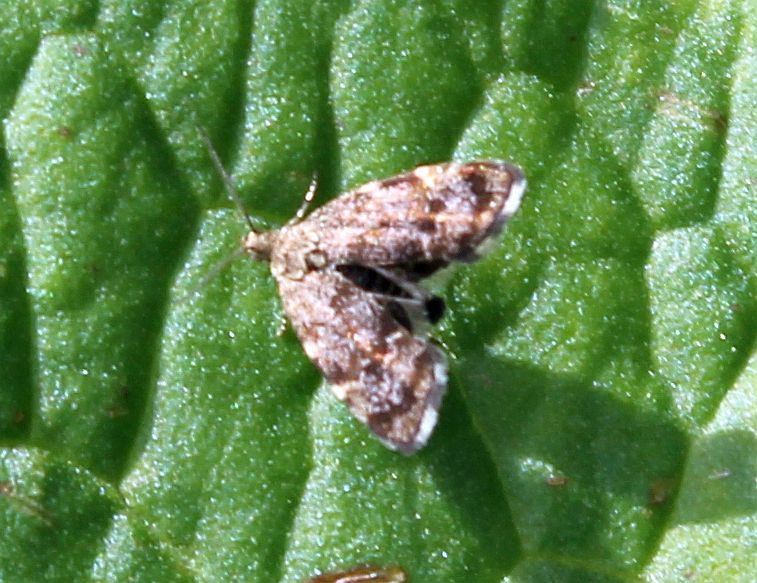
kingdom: Animalia
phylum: Arthropoda
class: Insecta
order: Lepidoptera
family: Choreutidae
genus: Anthophila
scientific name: Anthophila fabriciana
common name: Nettle-tap
